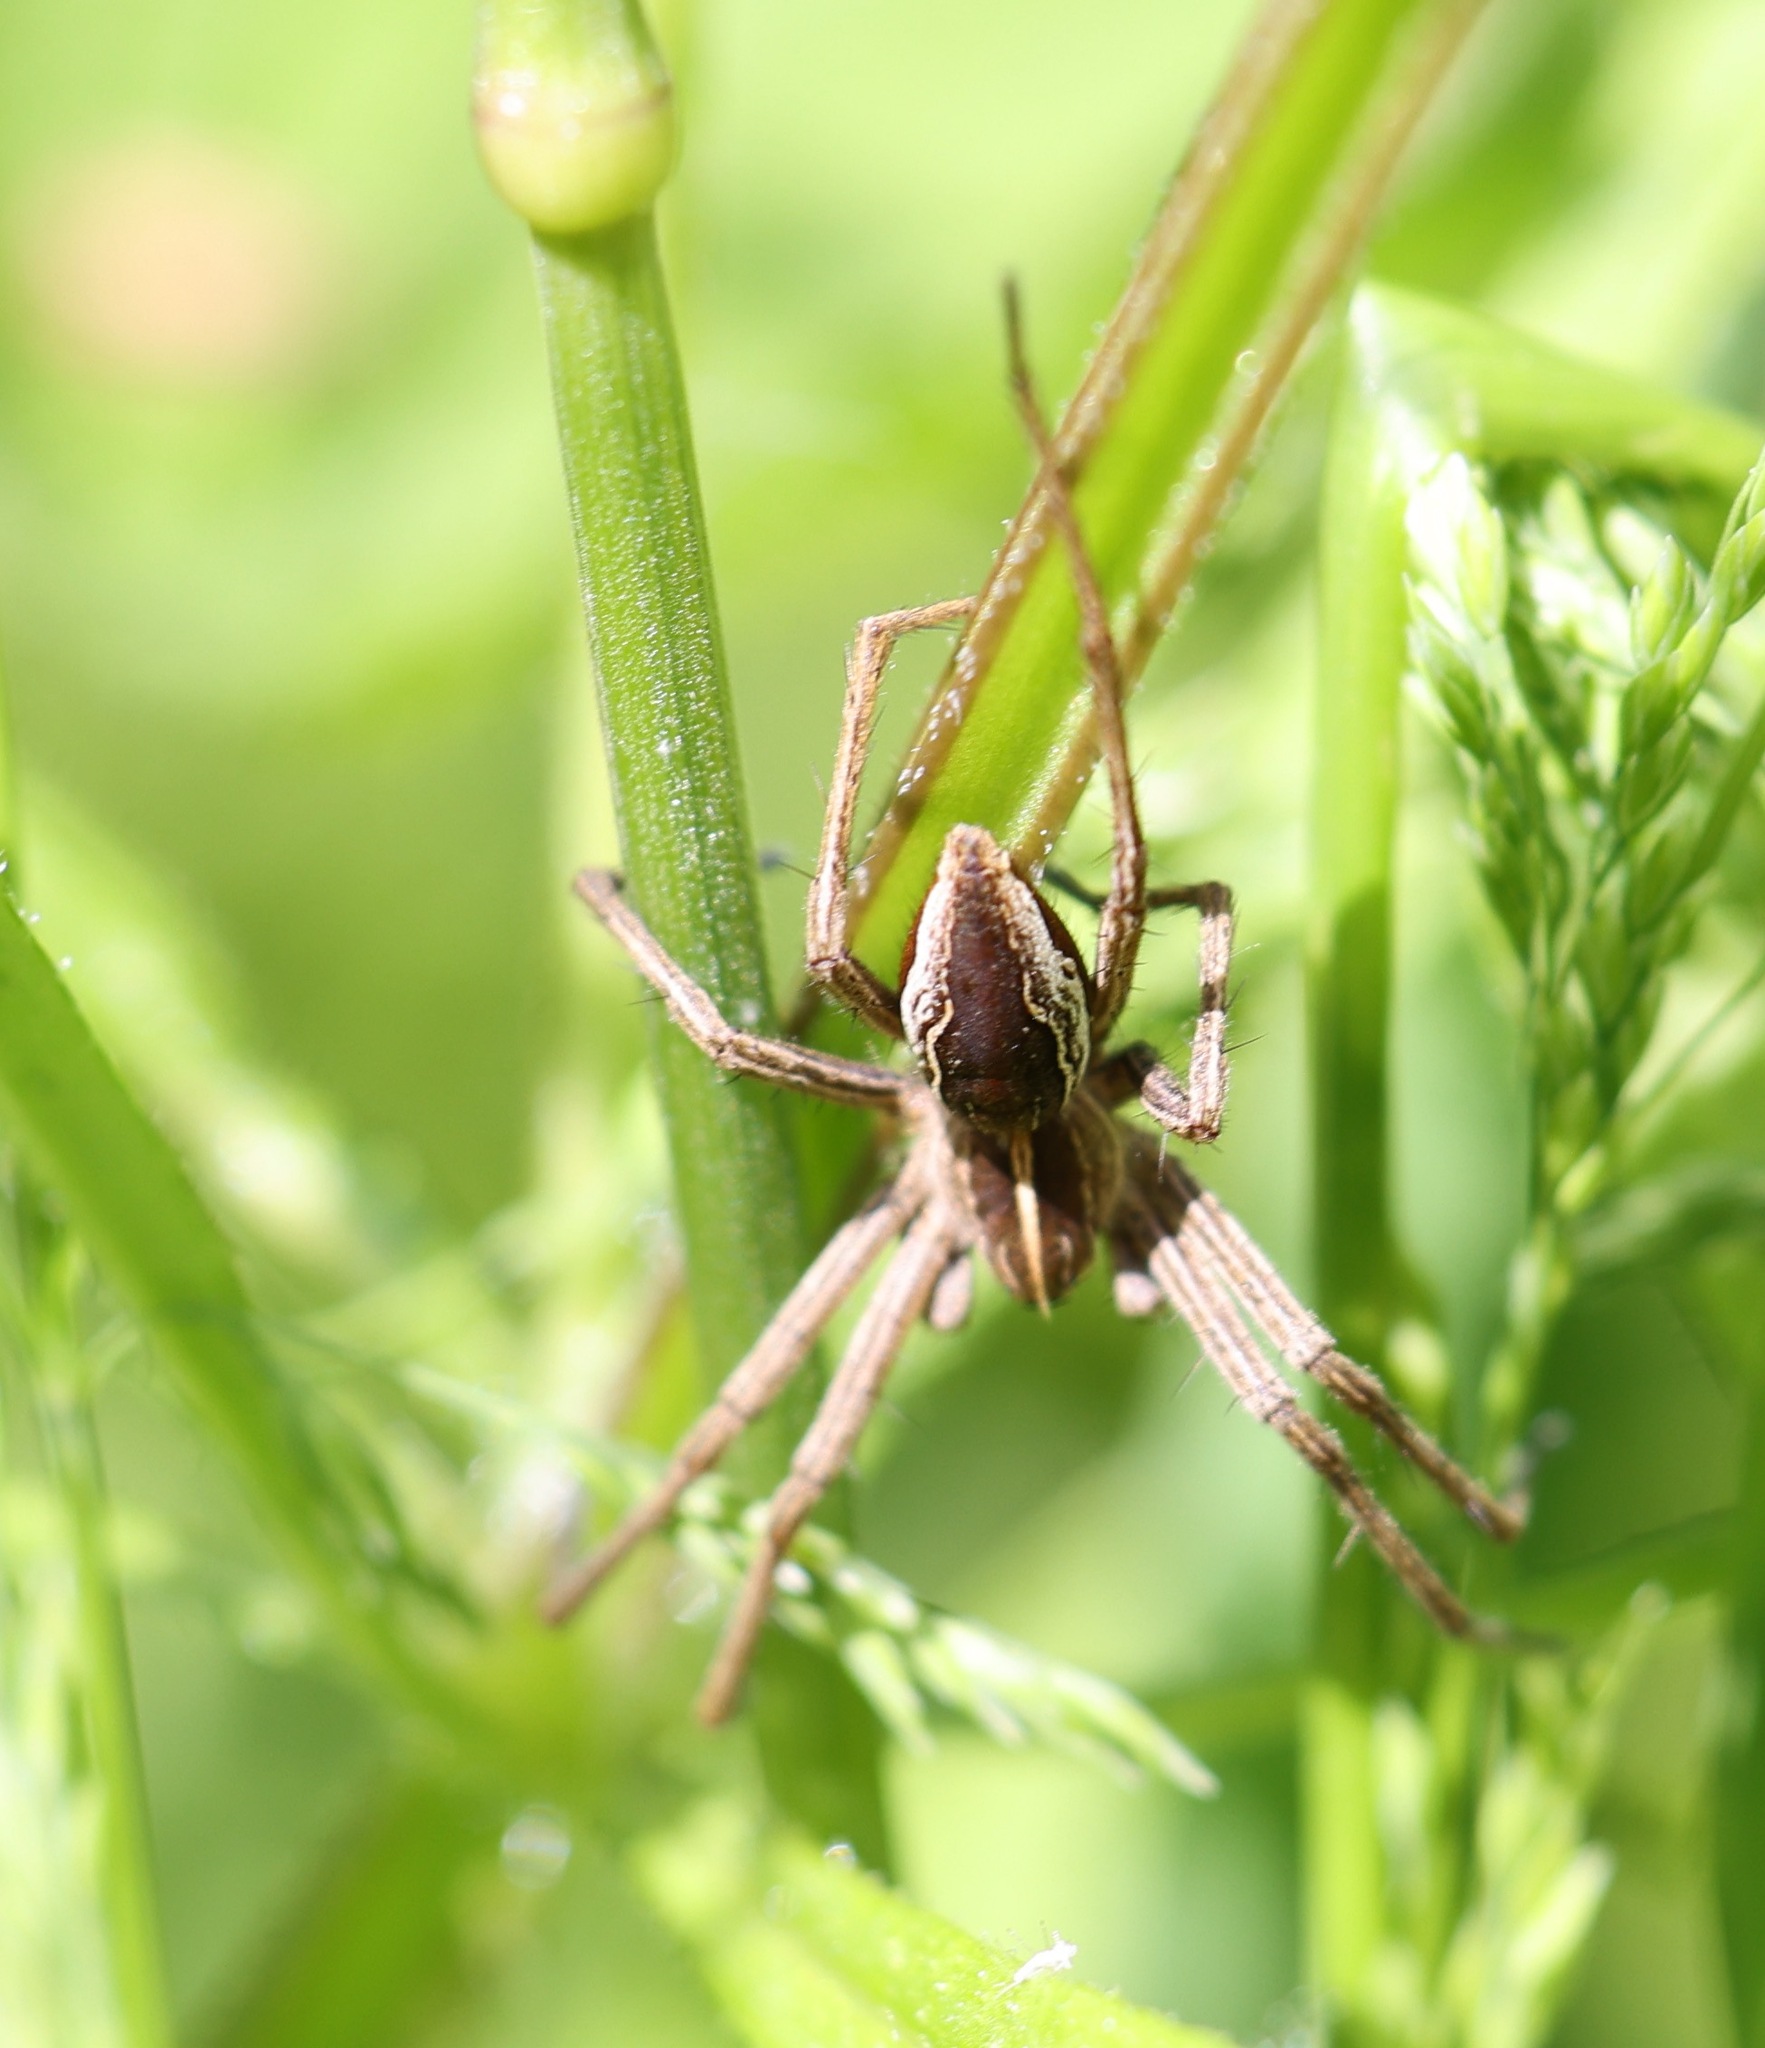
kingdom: Animalia
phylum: Arthropoda
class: Arachnida
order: Araneae
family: Pisauridae
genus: Pisaura
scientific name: Pisaura mirabilis
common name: Tent spider
